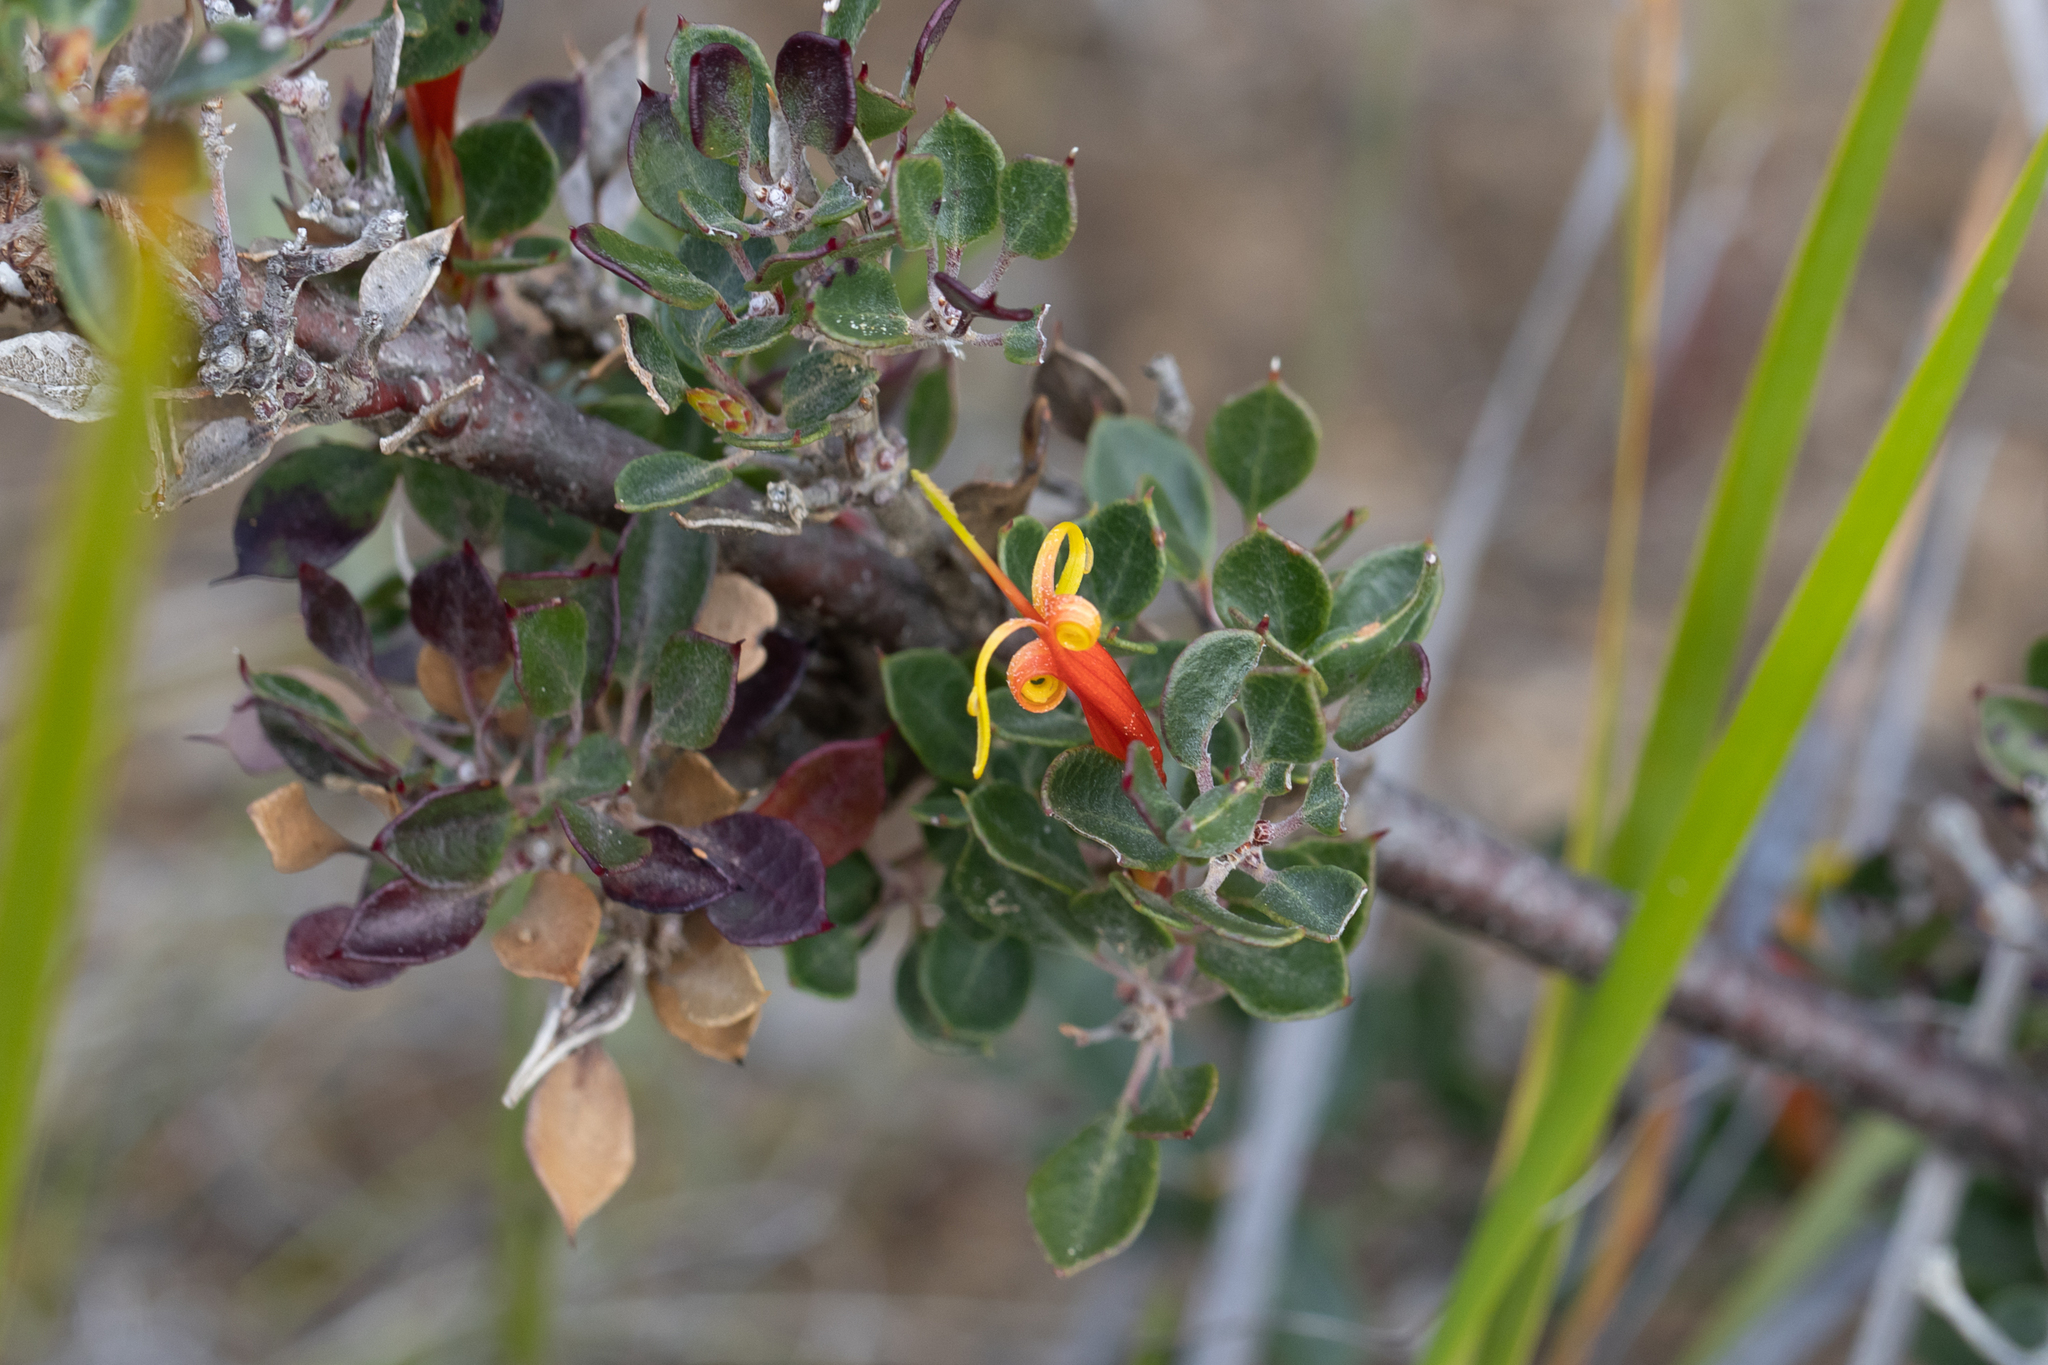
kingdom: Plantae
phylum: Tracheophyta
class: Magnoliopsida
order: Proteales
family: Proteaceae
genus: Lambertia
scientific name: Lambertia uniflora
